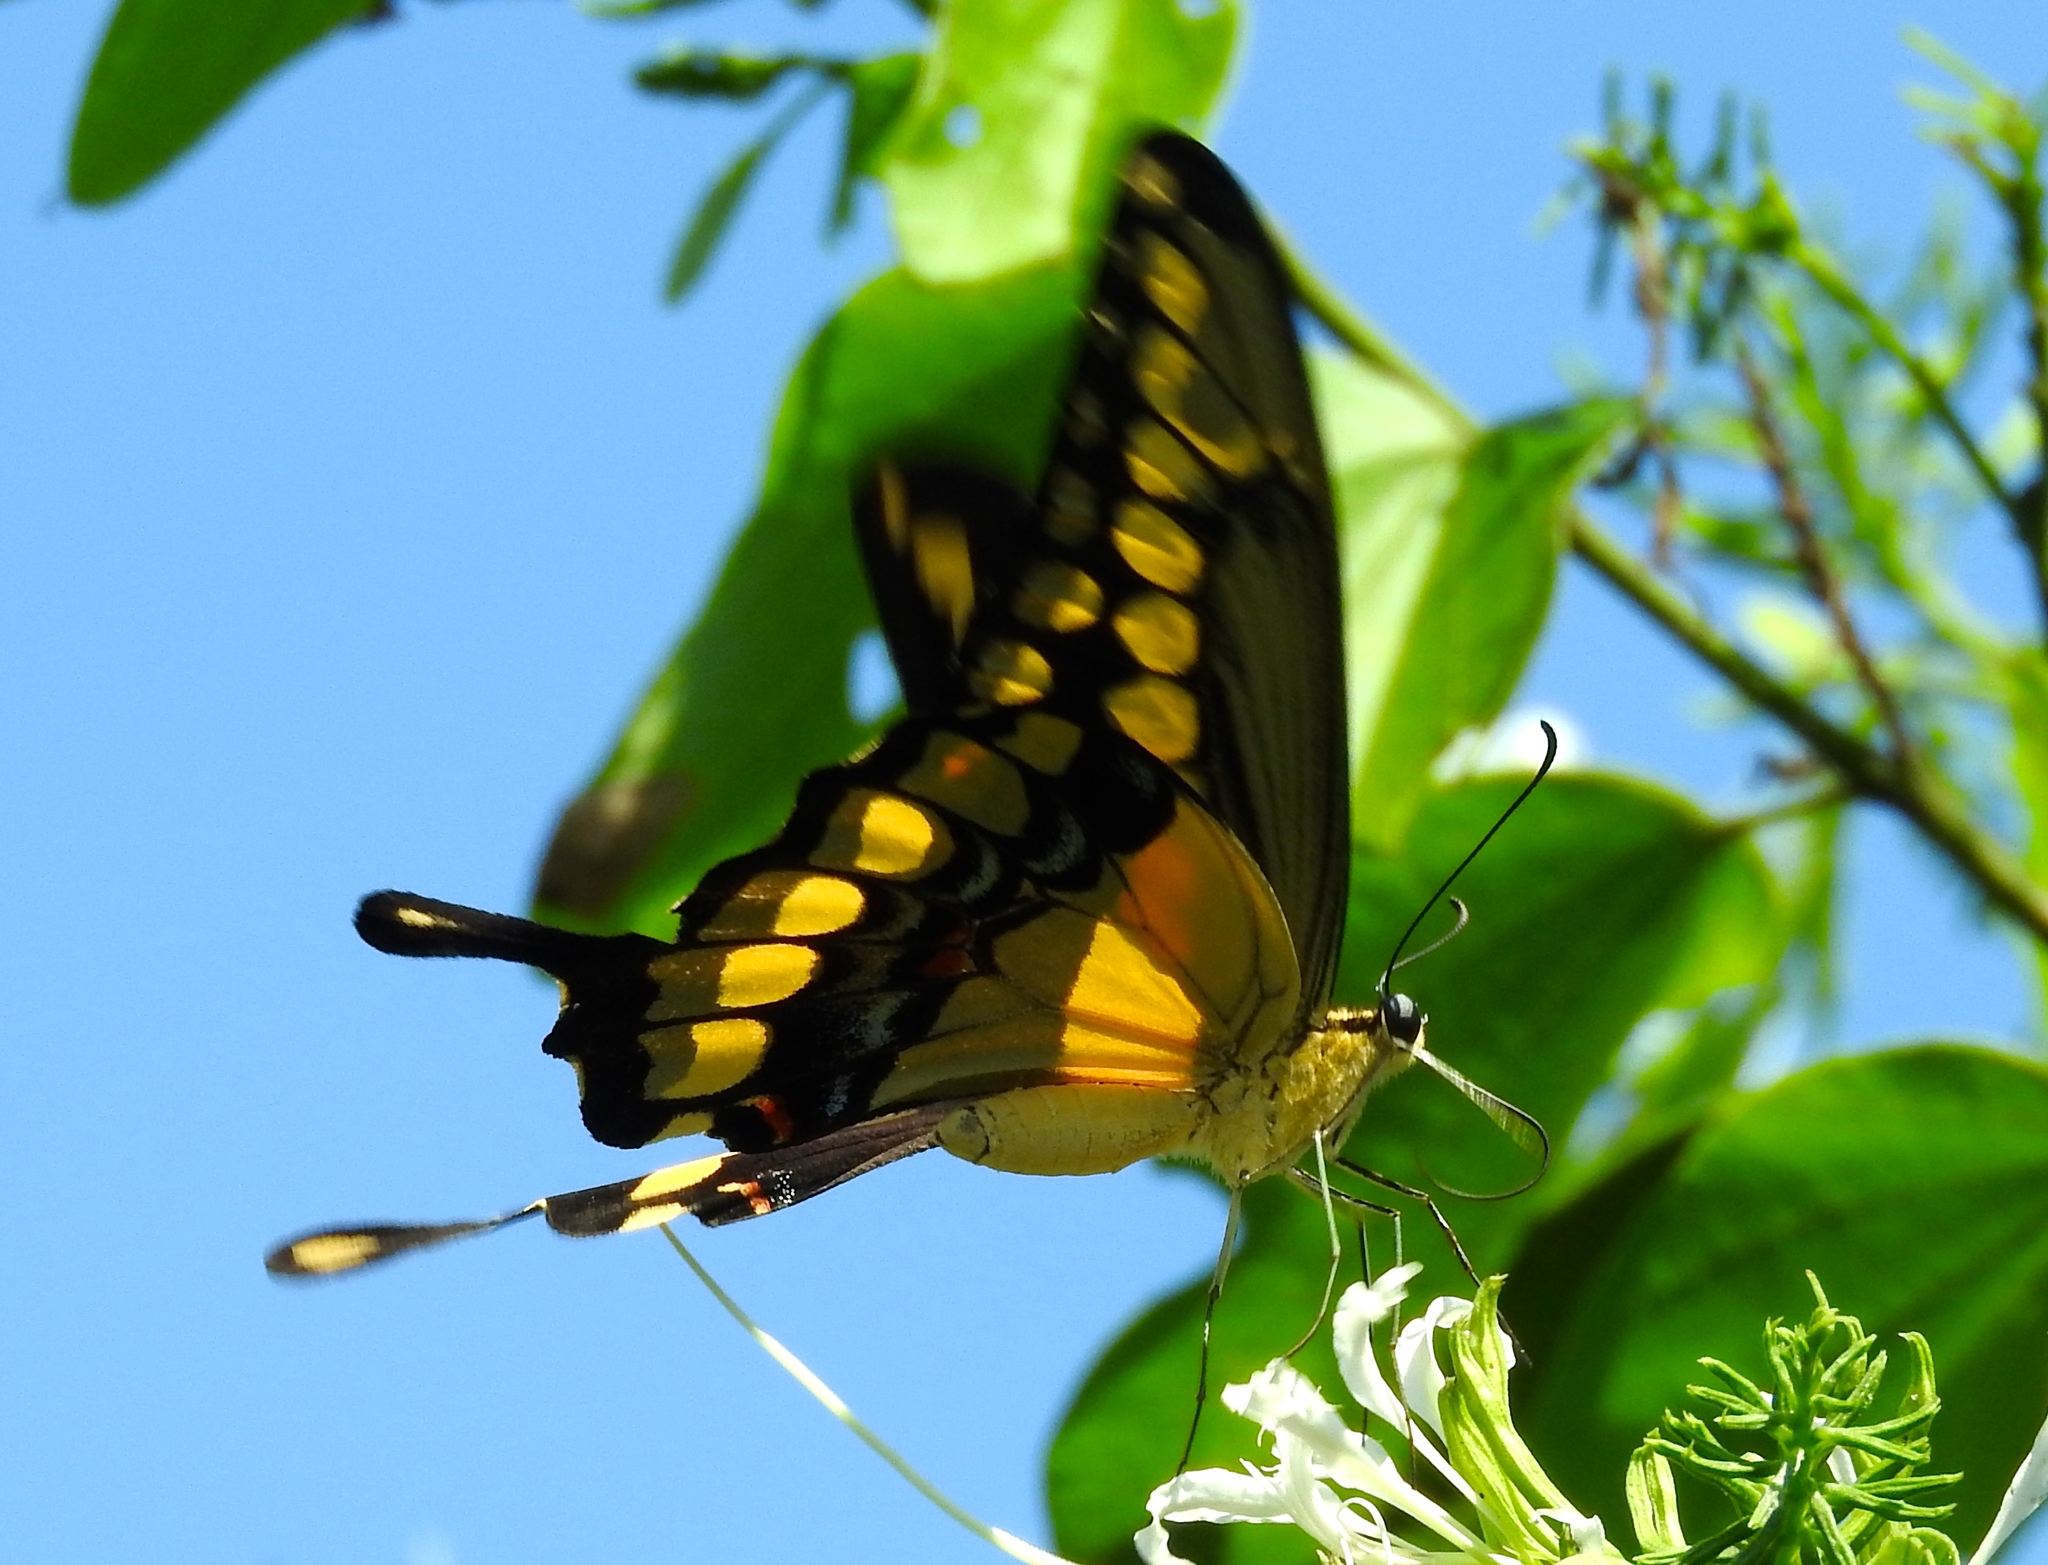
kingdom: Animalia
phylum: Arthropoda
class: Insecta
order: Lepidoptera
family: Papilionidae
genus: Papilio
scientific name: Papilio rumiko
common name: Western giant swallowtail
